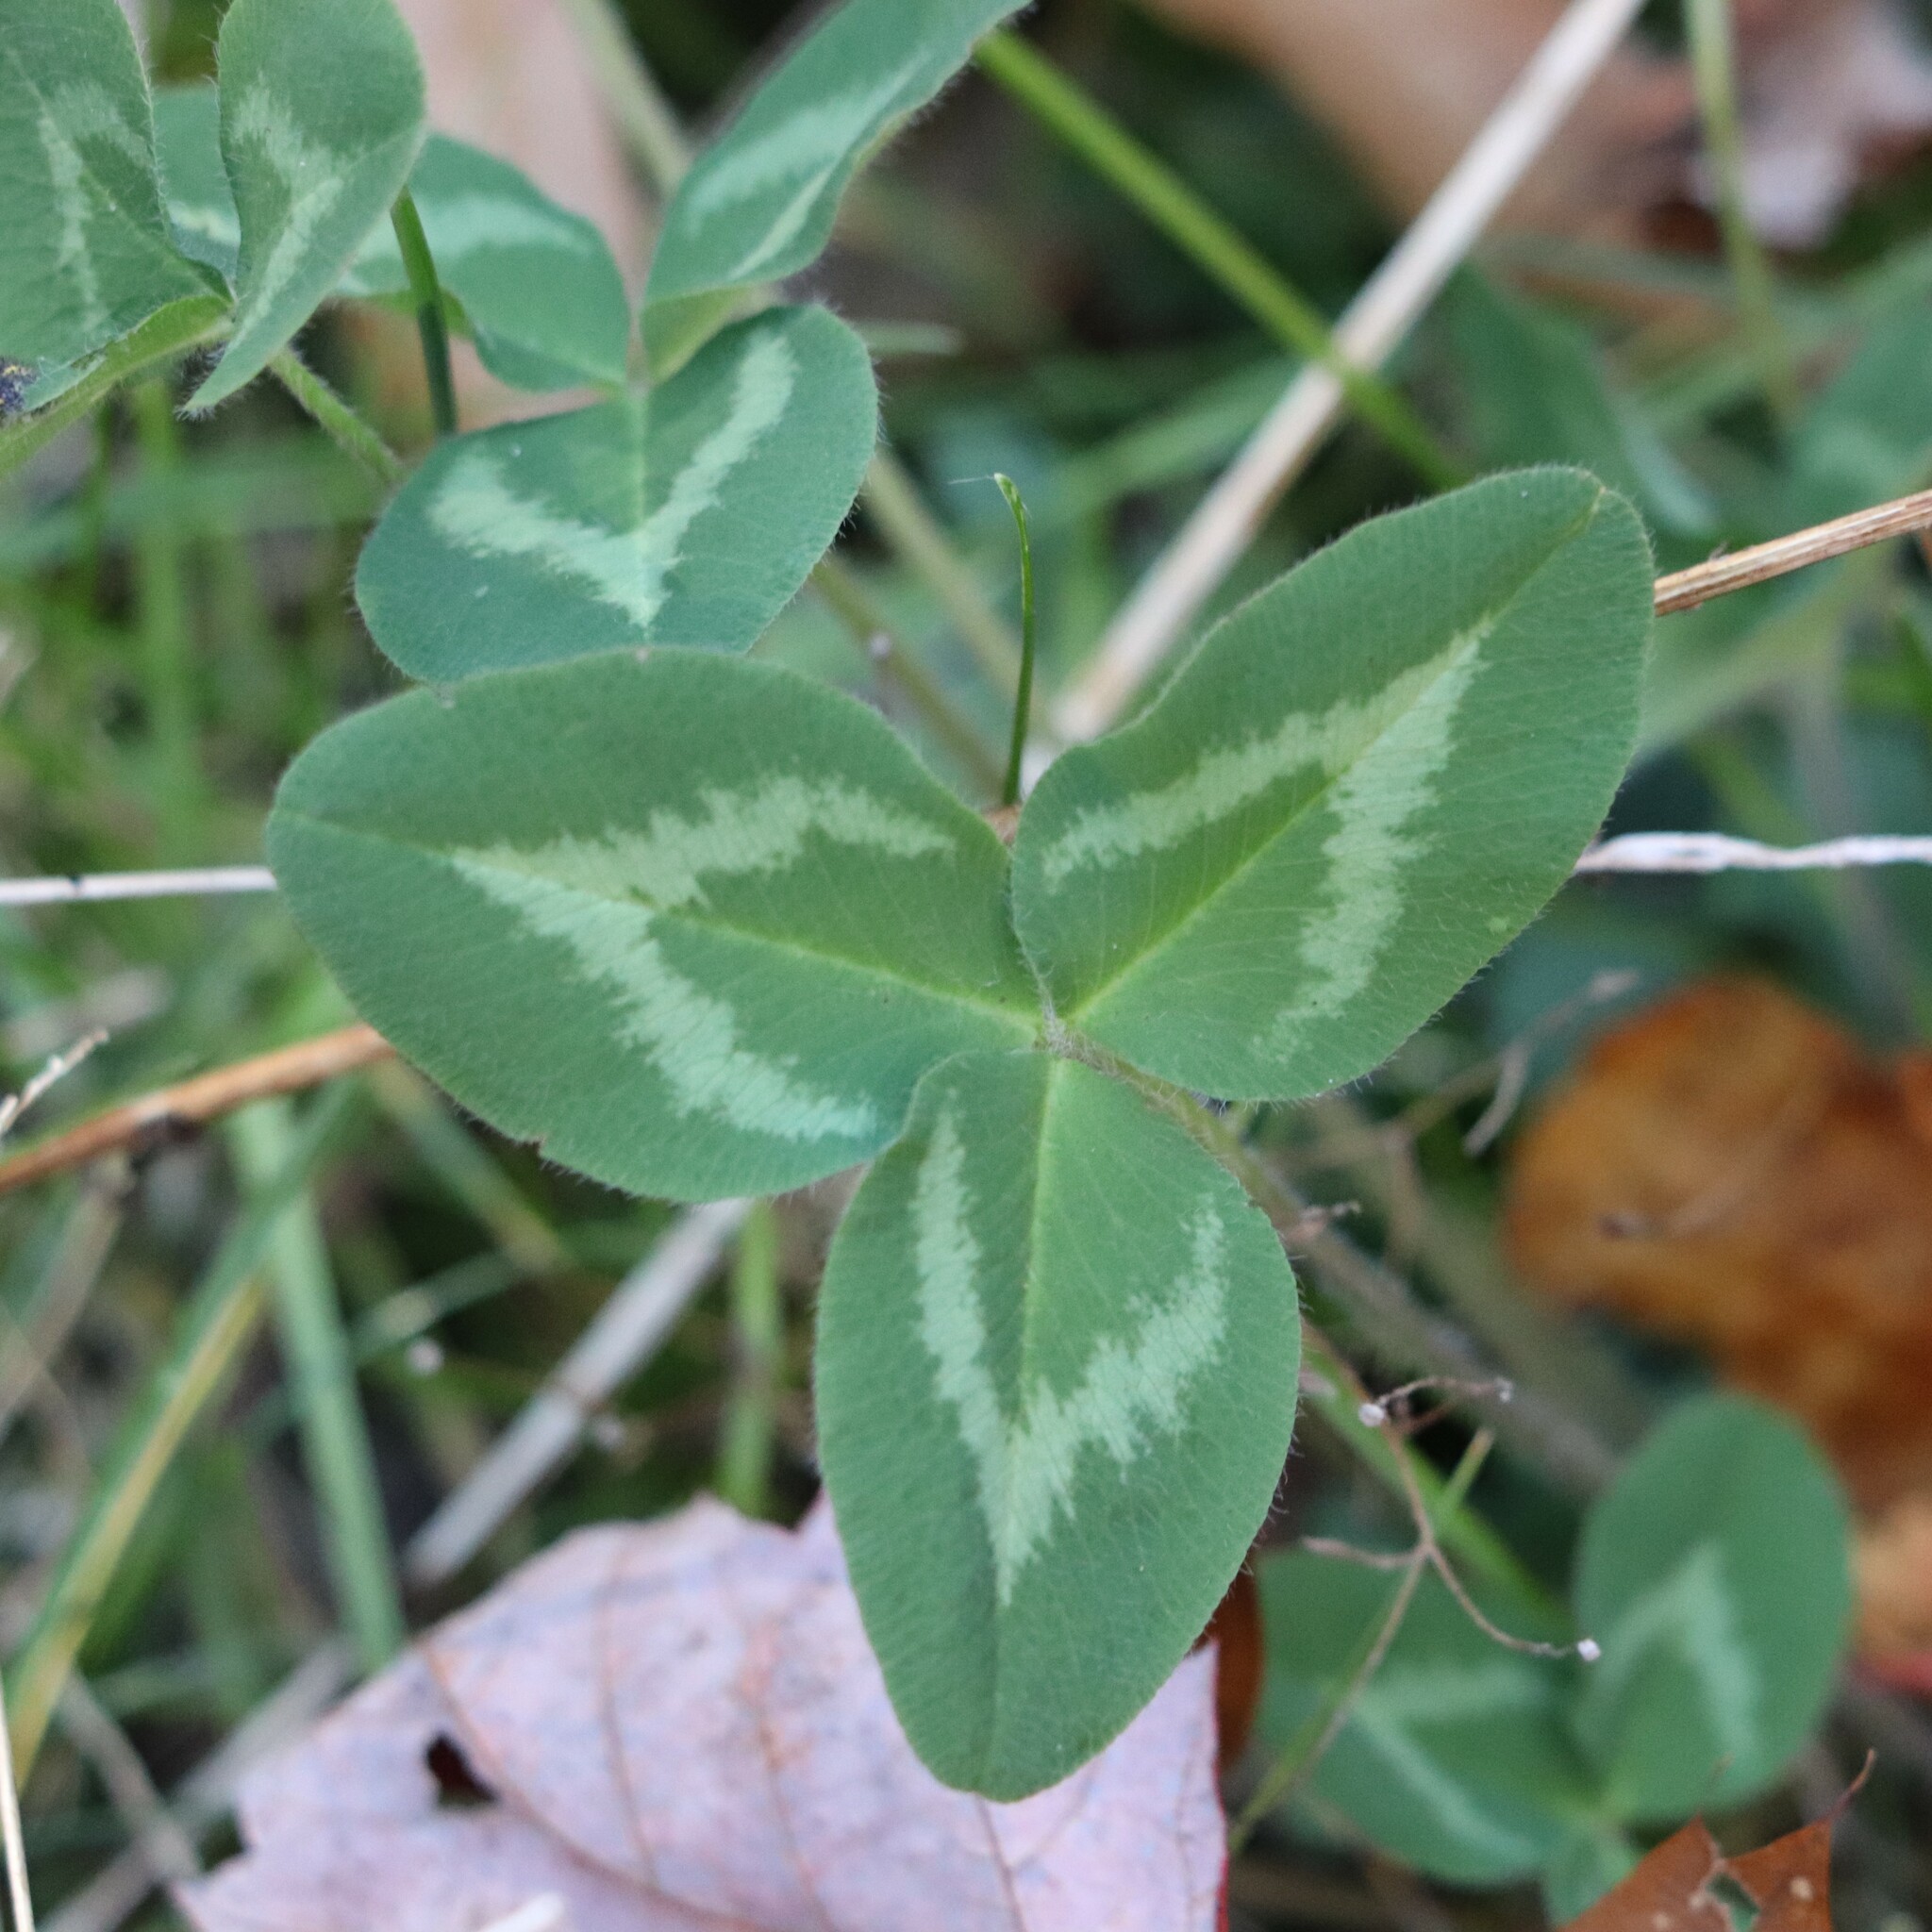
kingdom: Plantae
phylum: Tracheophyta
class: Magnoliopsida
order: Fabales
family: Fabaceae
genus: Trifolium
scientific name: Trifolium pratense
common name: Red clover
